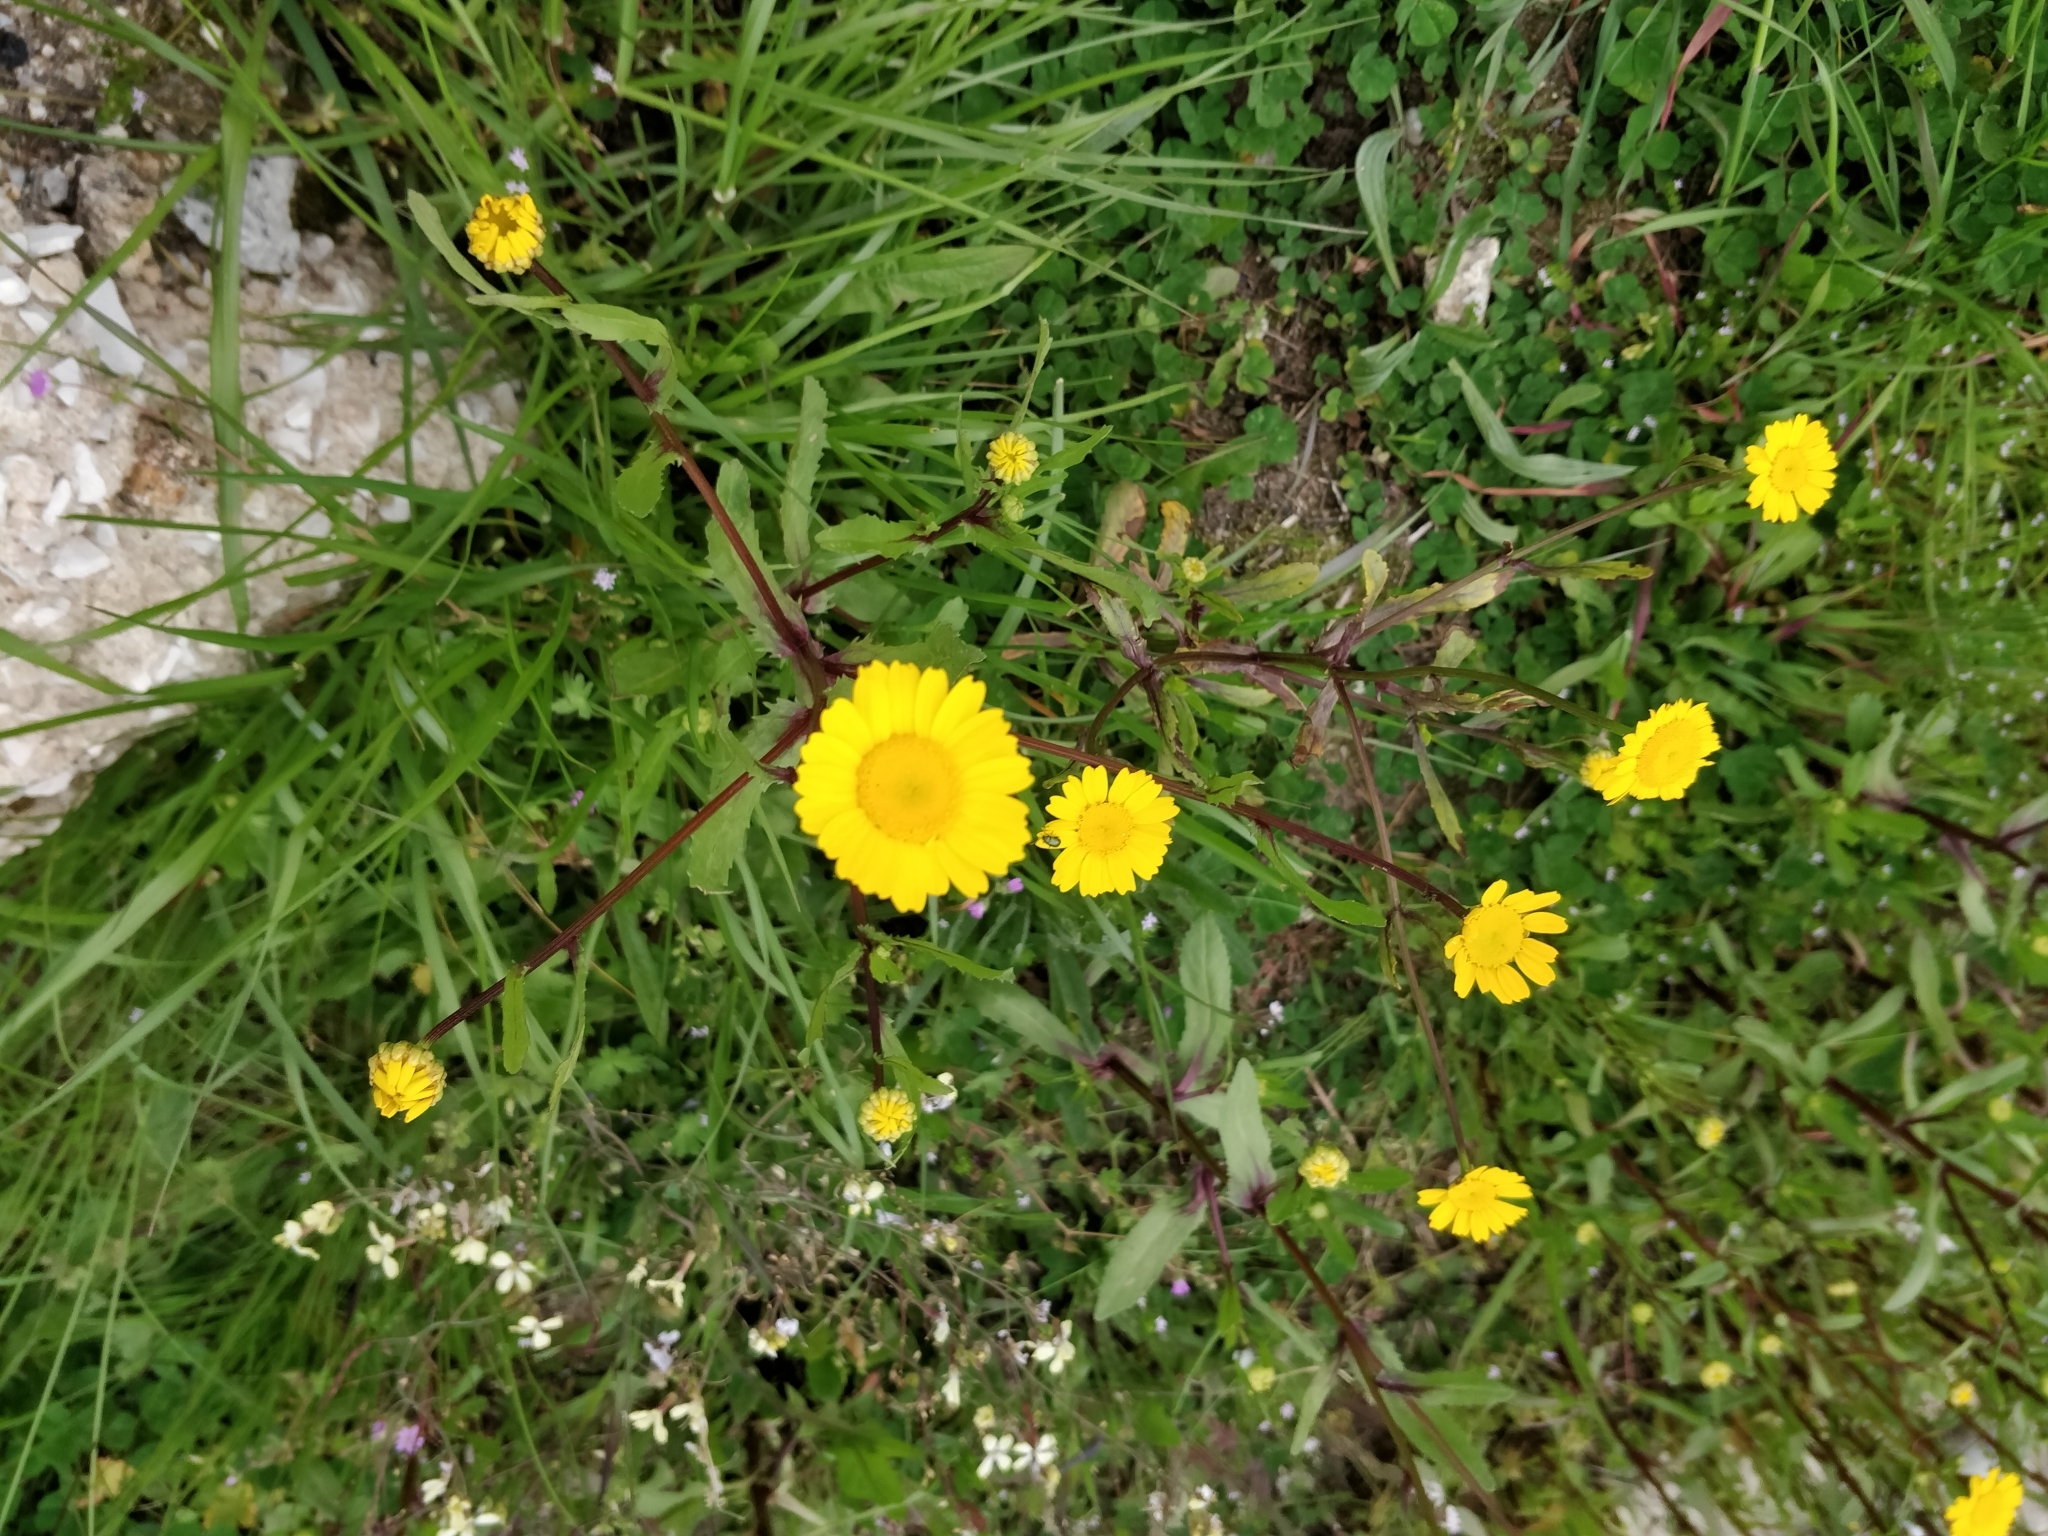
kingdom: Plantae
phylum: Tracheophyta
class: Magnoliopsida
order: Asterales
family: Asteraceae
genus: Coleostephus
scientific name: Coleostephus myconis
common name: Mediterranean marigold
